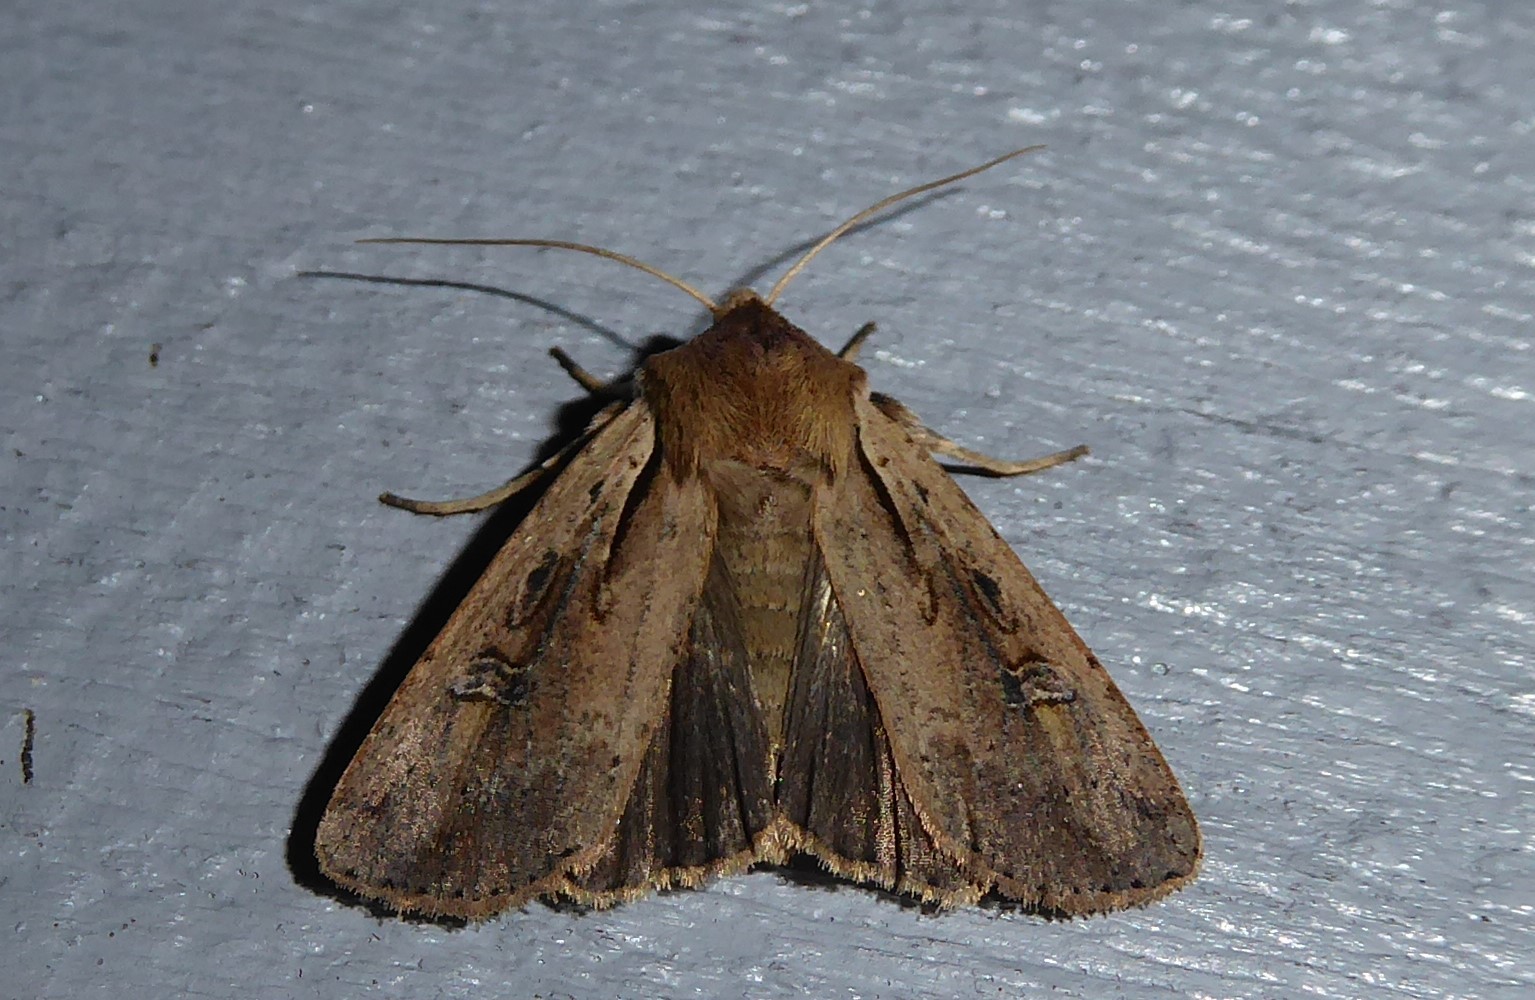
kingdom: Animalia
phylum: Arthropoda
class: Insecta
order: Lepidoptera
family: Noctuidae
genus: Ichneutica
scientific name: Ichneutica atristriga
